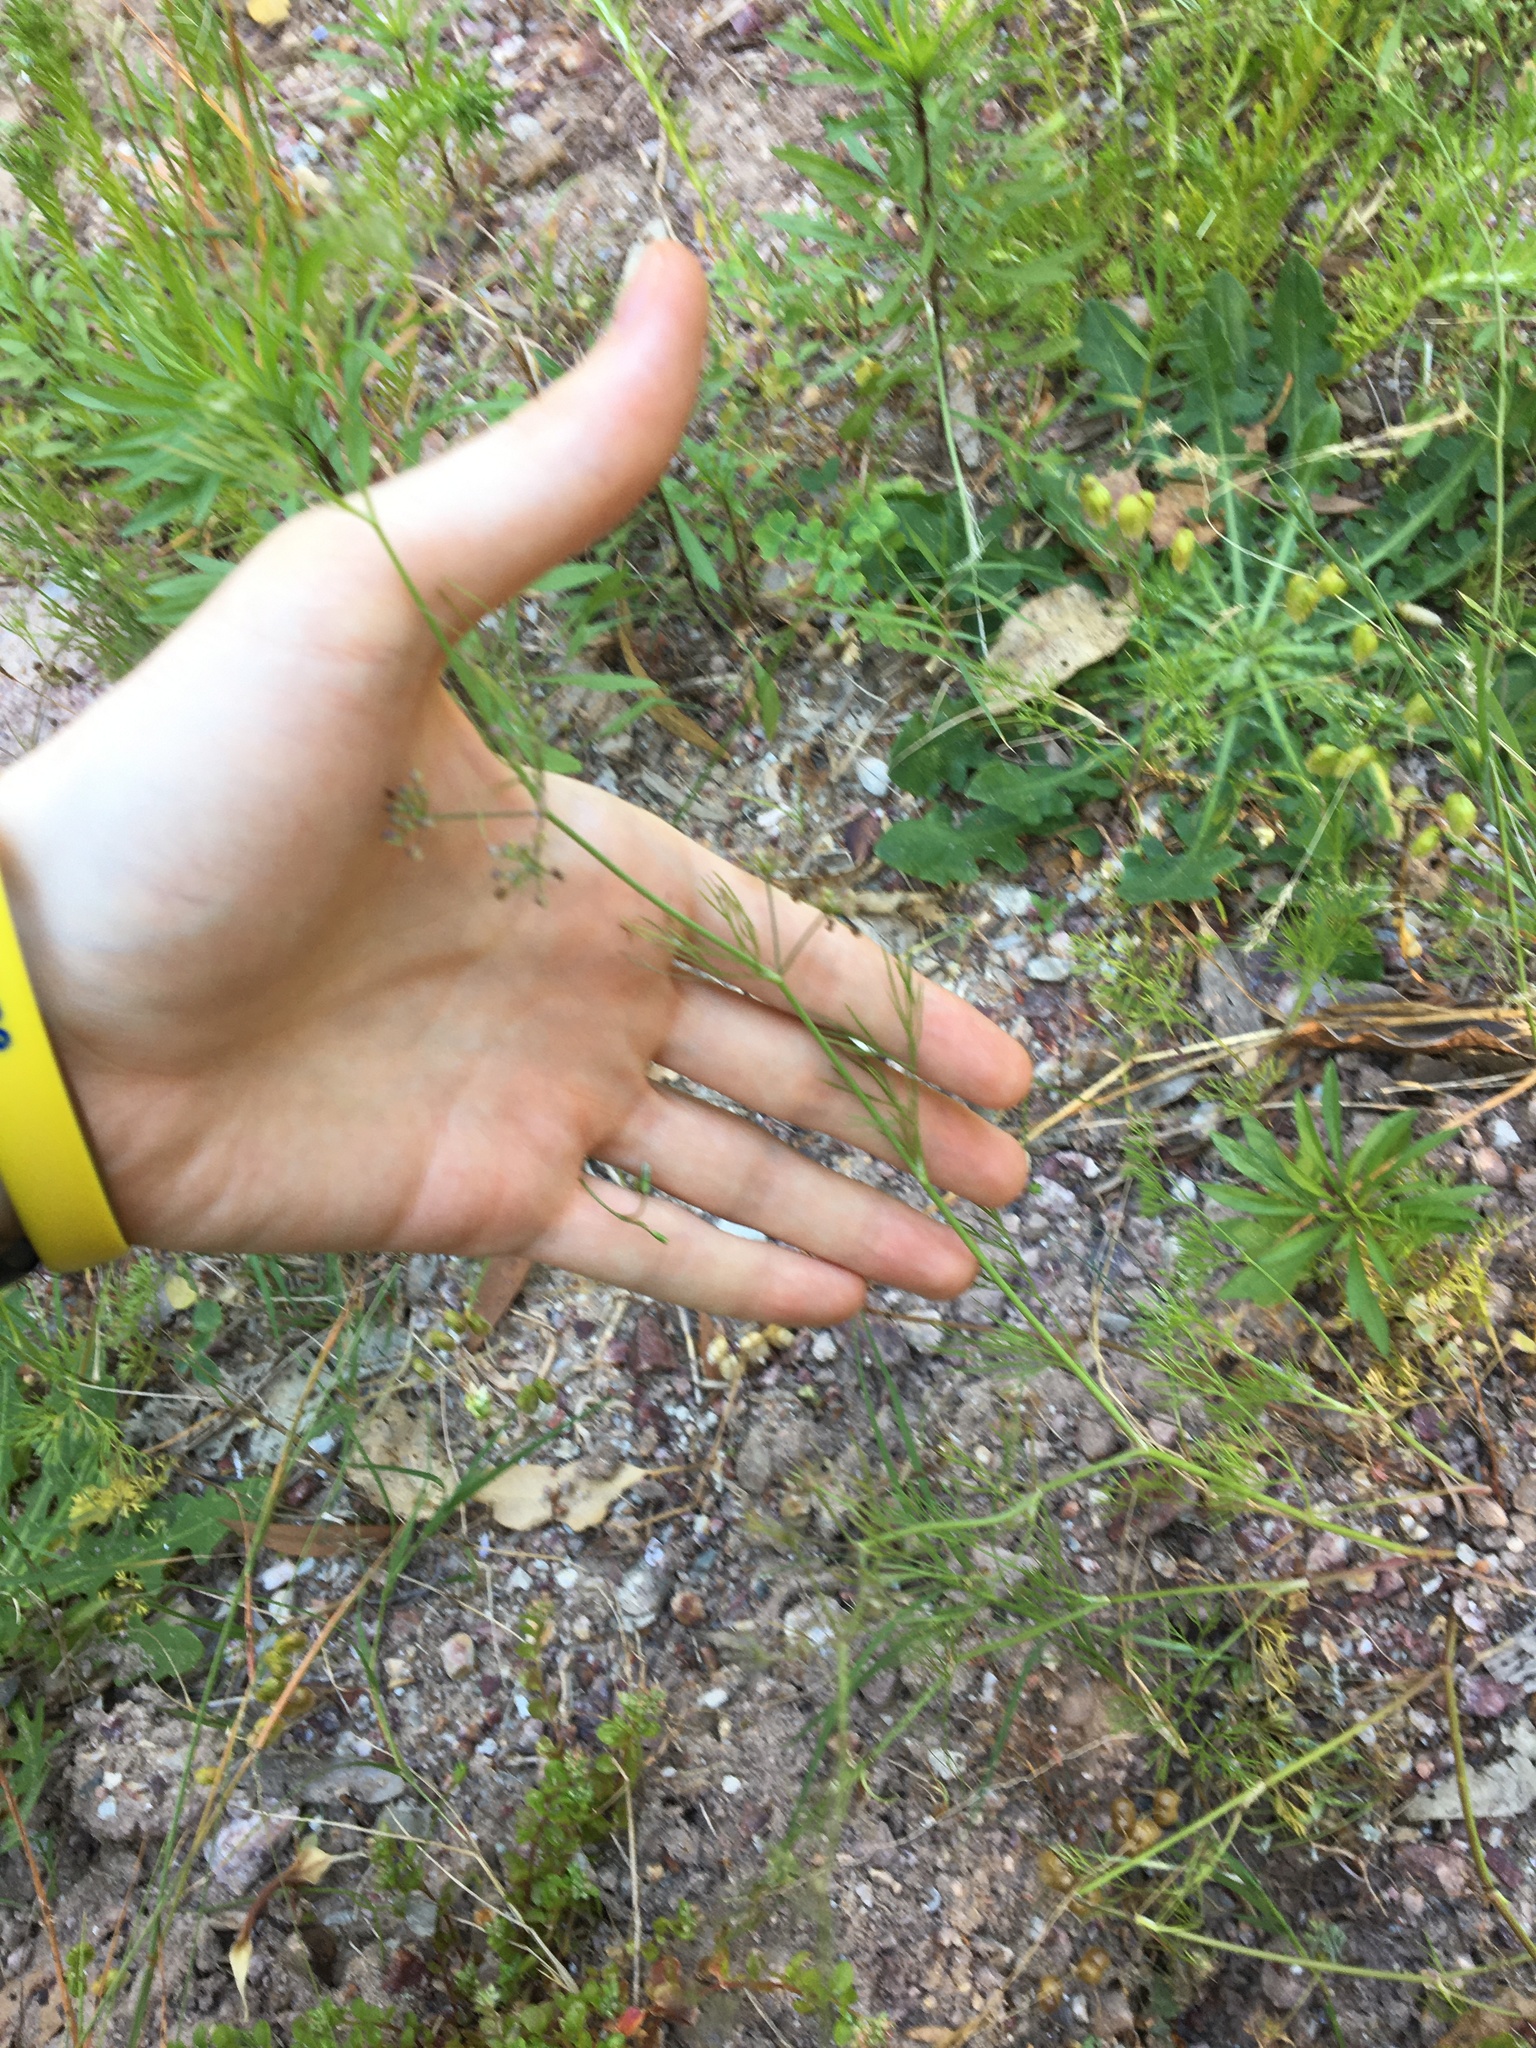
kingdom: Plantae
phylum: Tracheophyta
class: Magnoliopsida
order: Apiales
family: Apiaceae
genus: Cyclospermum
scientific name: Cyclospermum leptophyllum
